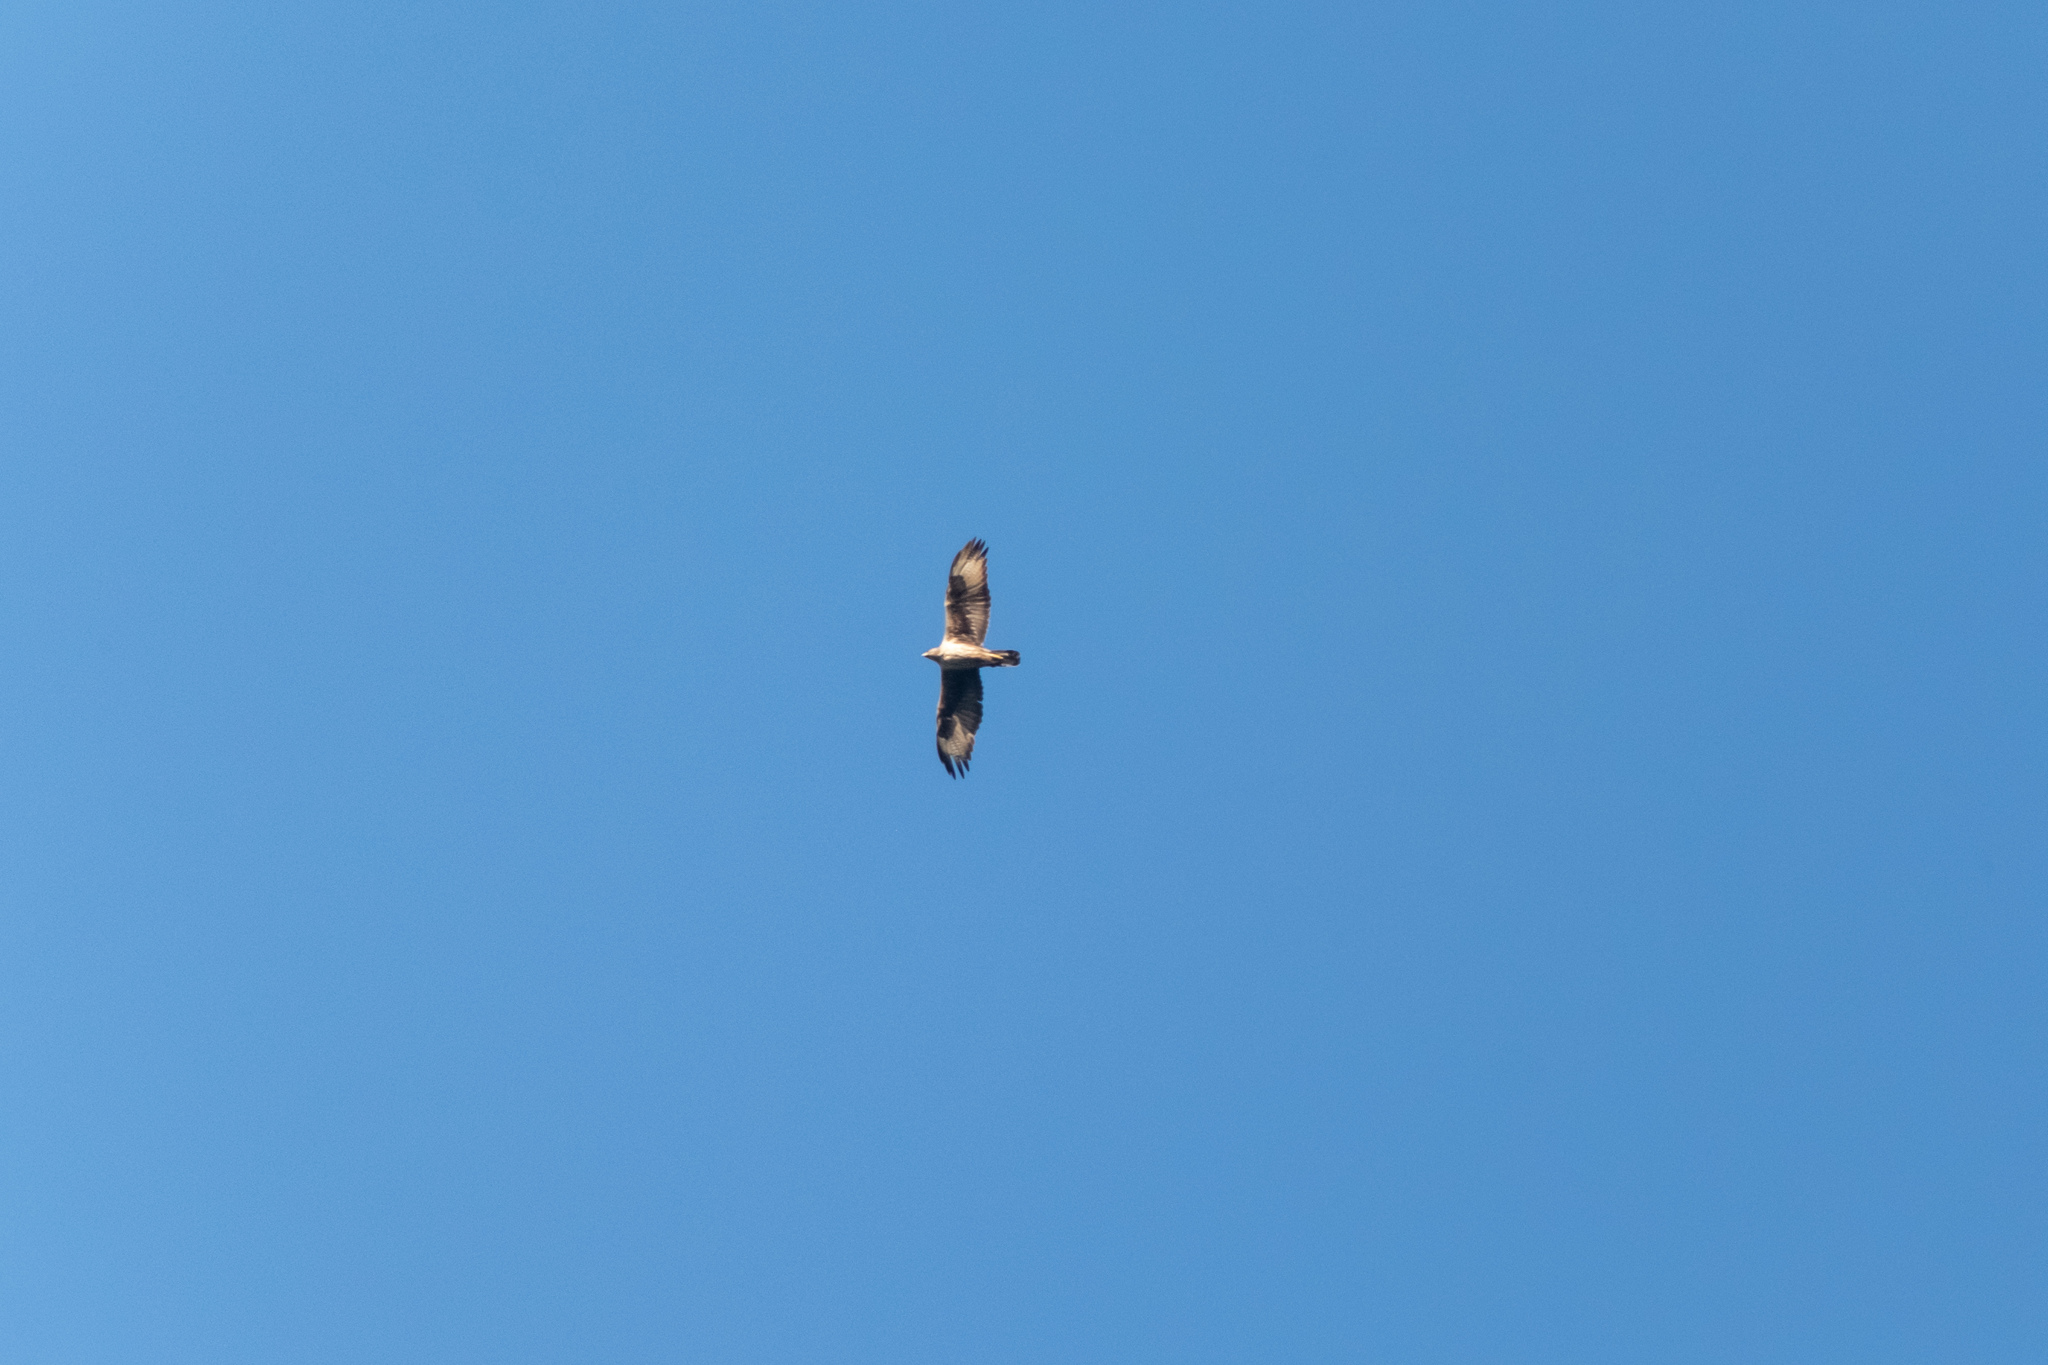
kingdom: Animalia
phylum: Chordata
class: Aves
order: Accipitriformes
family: Accipitridae
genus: Aquila
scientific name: Aquila fasciata
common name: Bonelli's eagle
